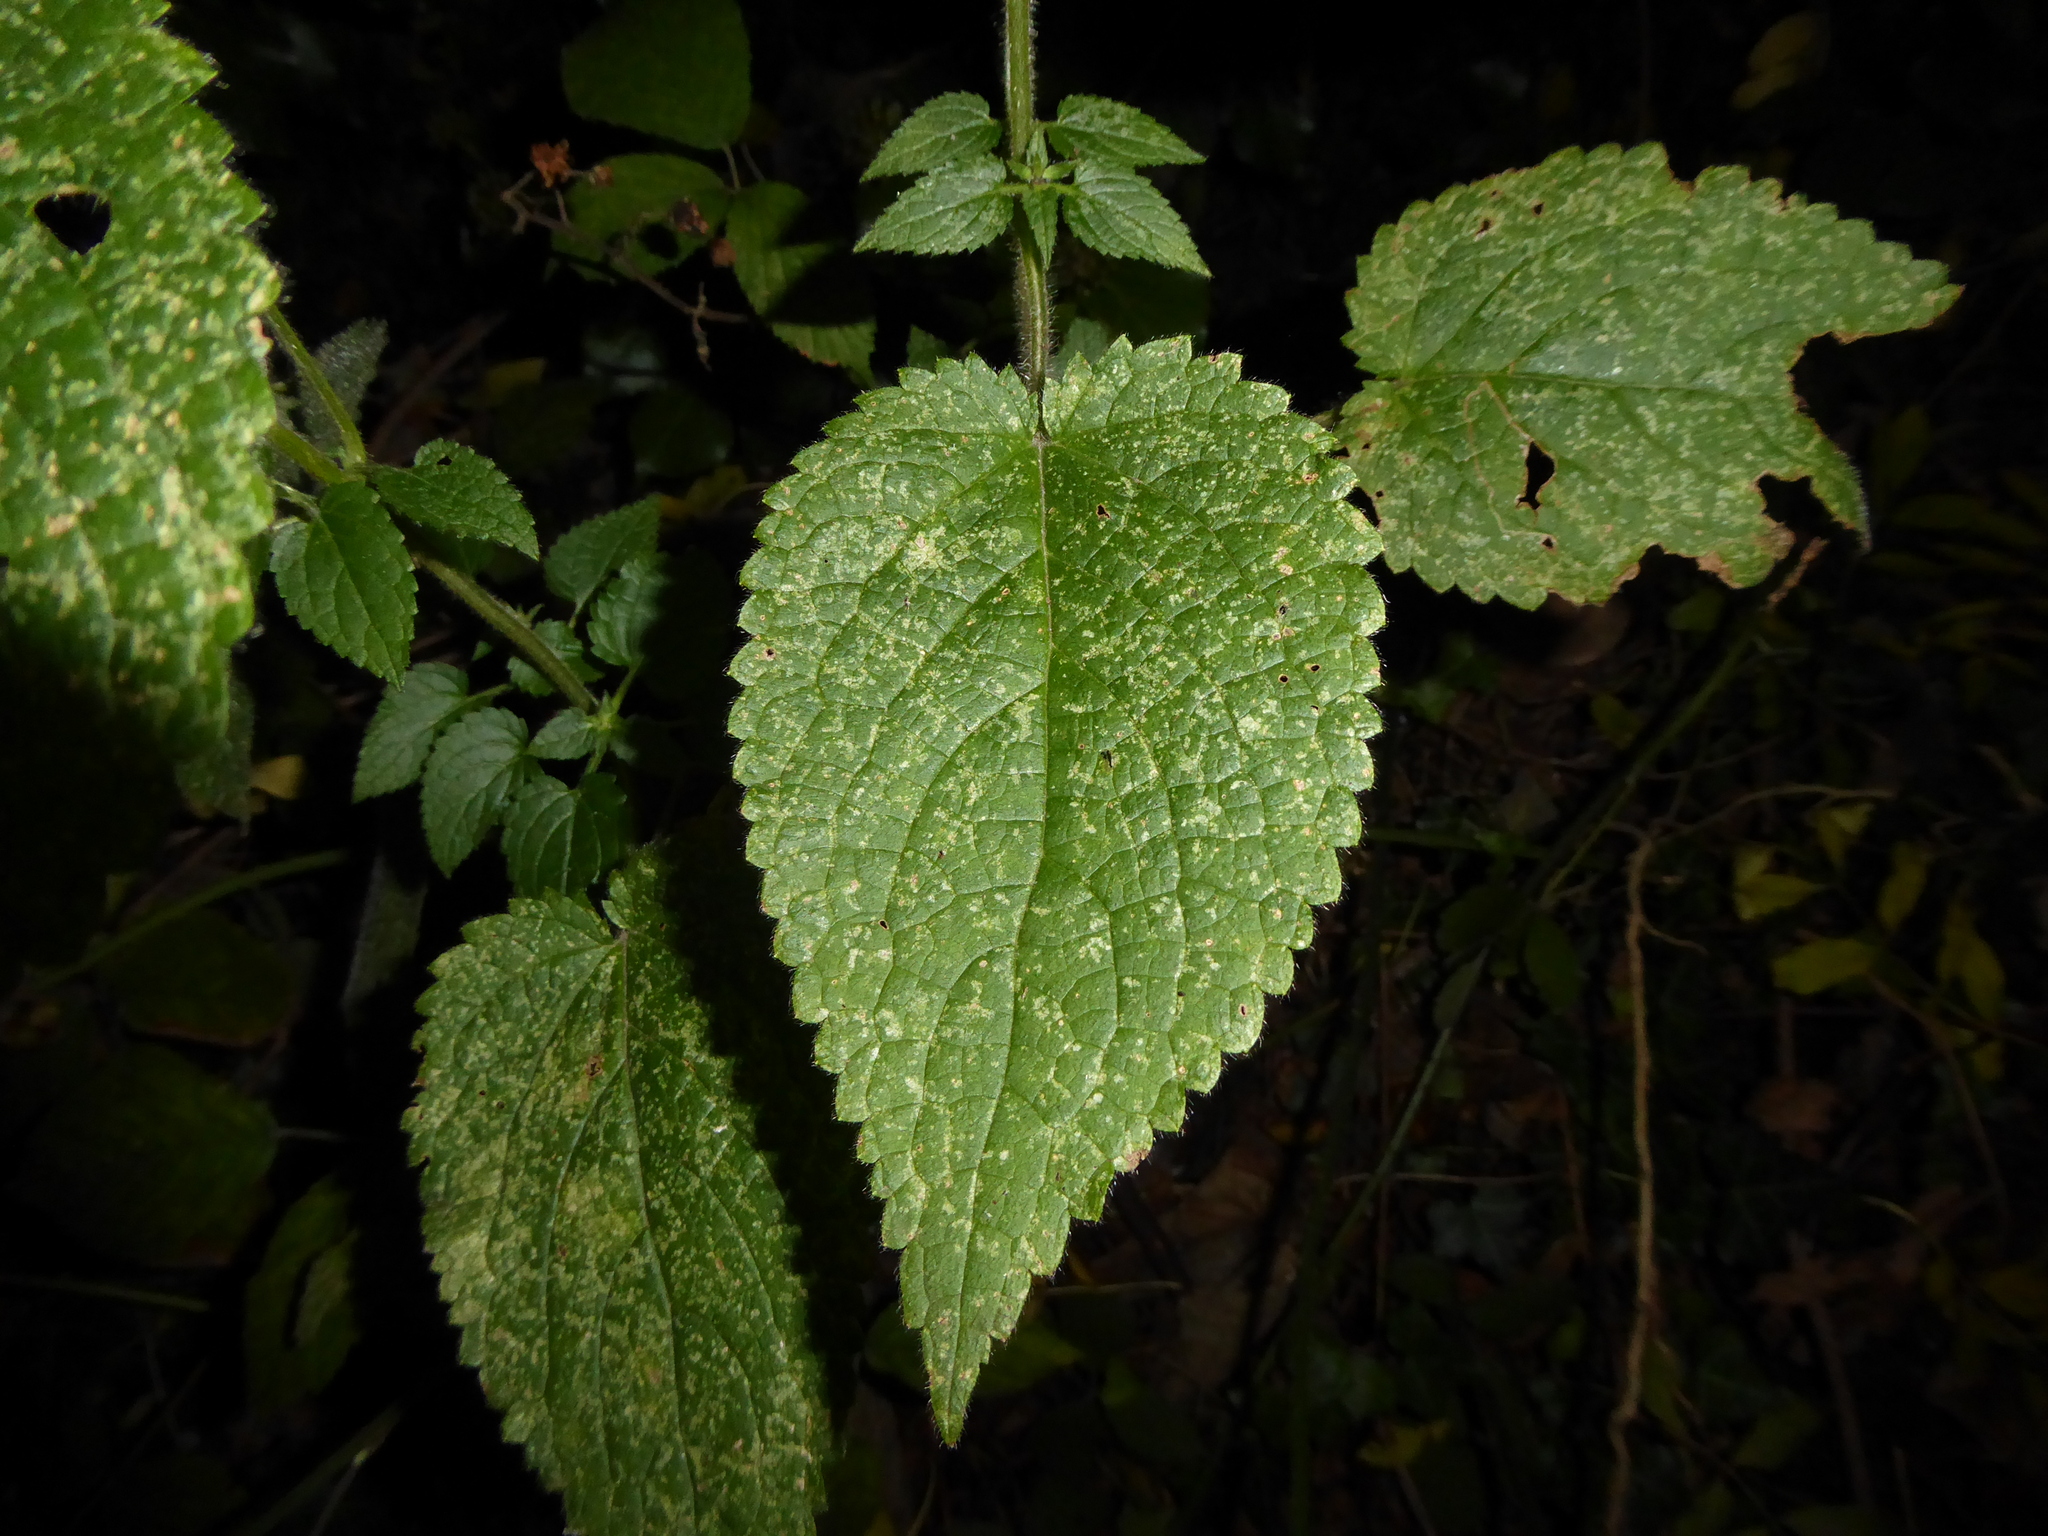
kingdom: Plantae
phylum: Tracheophyta
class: Magnoliopsida
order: Lamiales
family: Lamiaceae
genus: Stachys
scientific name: Stachys sylvatica
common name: Hedge woundwort
